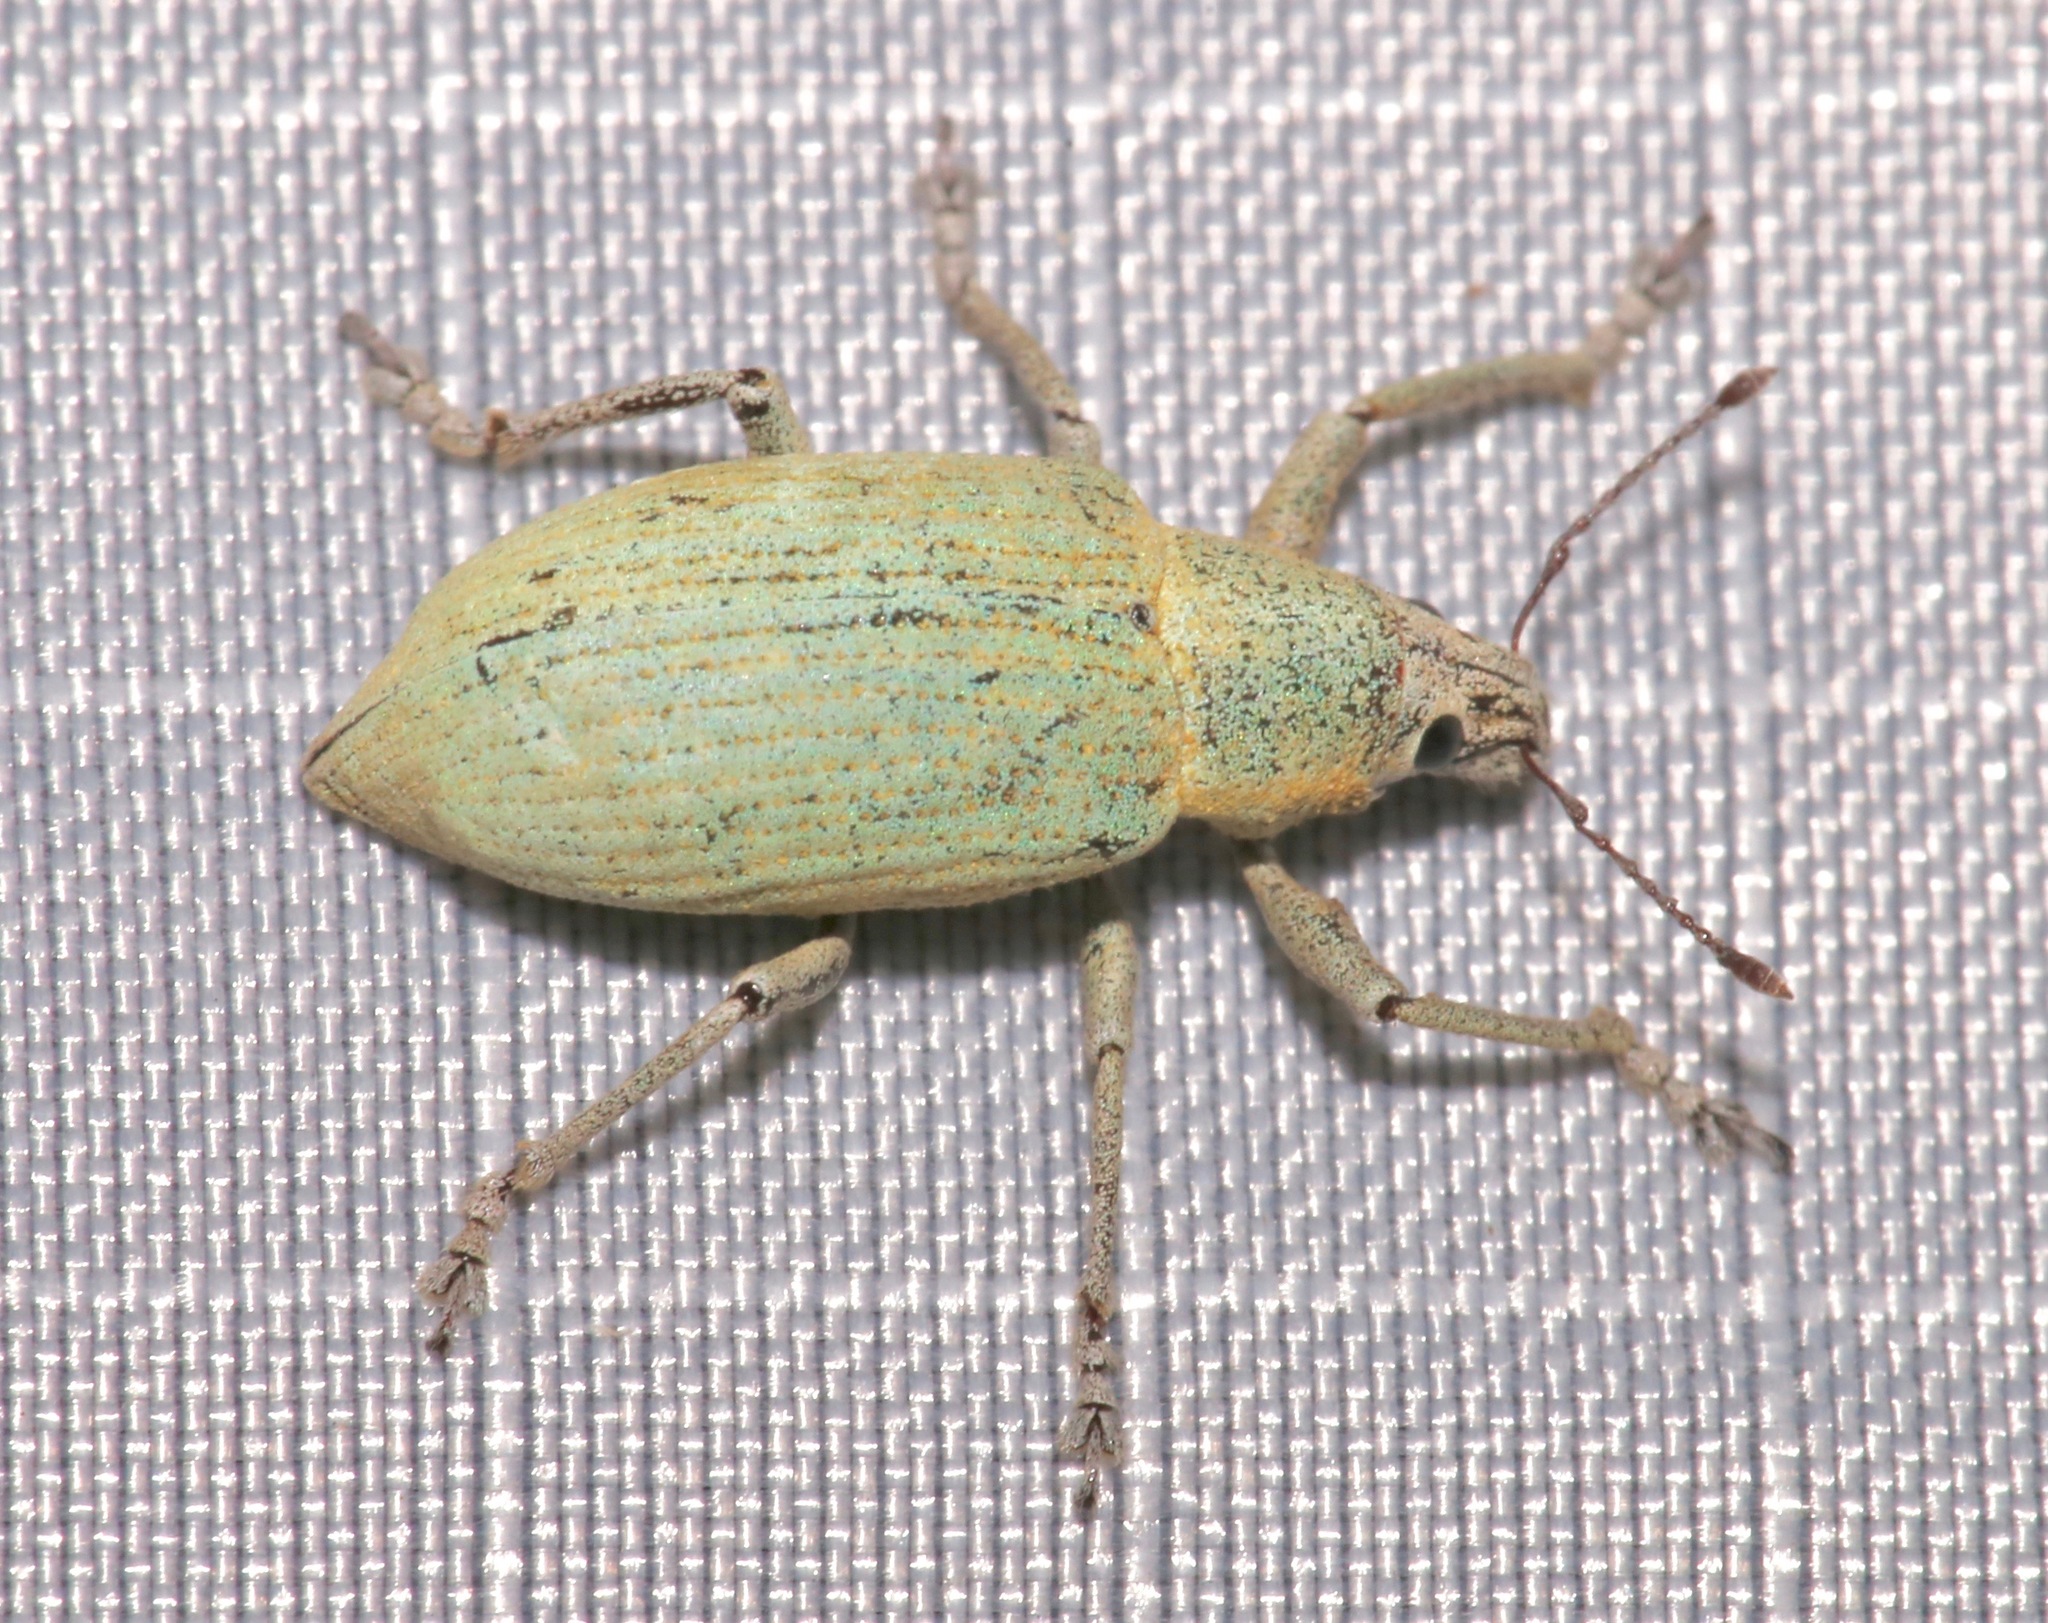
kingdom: Animalia
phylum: Arthropoda
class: Insecta
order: Coleoptera
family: Curculionidae
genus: Pachnaeus
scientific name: Pachnaeus opalus
